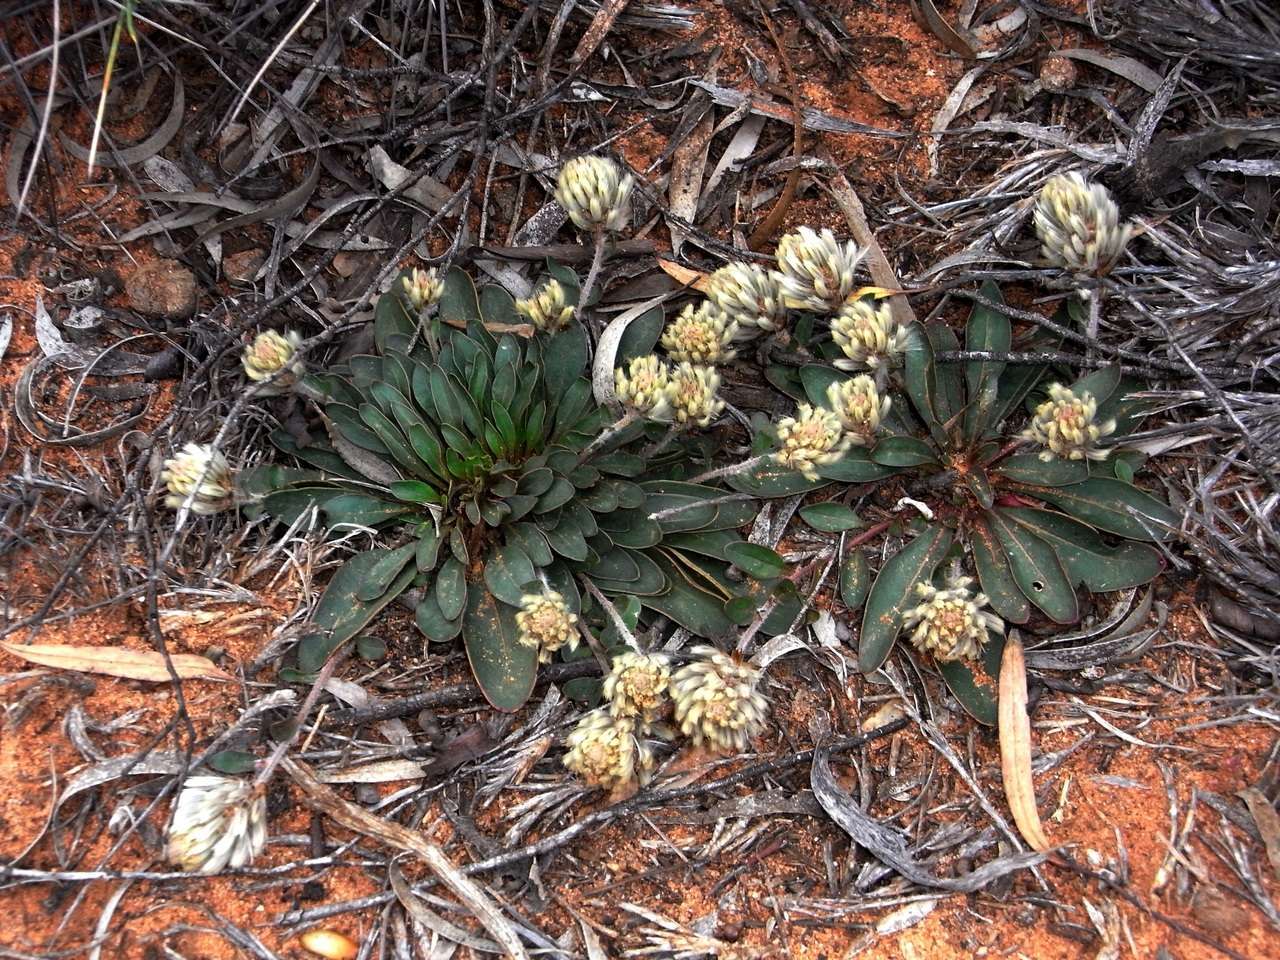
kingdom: Plantae
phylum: Tracheophyta
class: Magnoliopsida
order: Caryophyllales
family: Amaranthaceae
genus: Ptilotus
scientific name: Ptilotus seminudus
